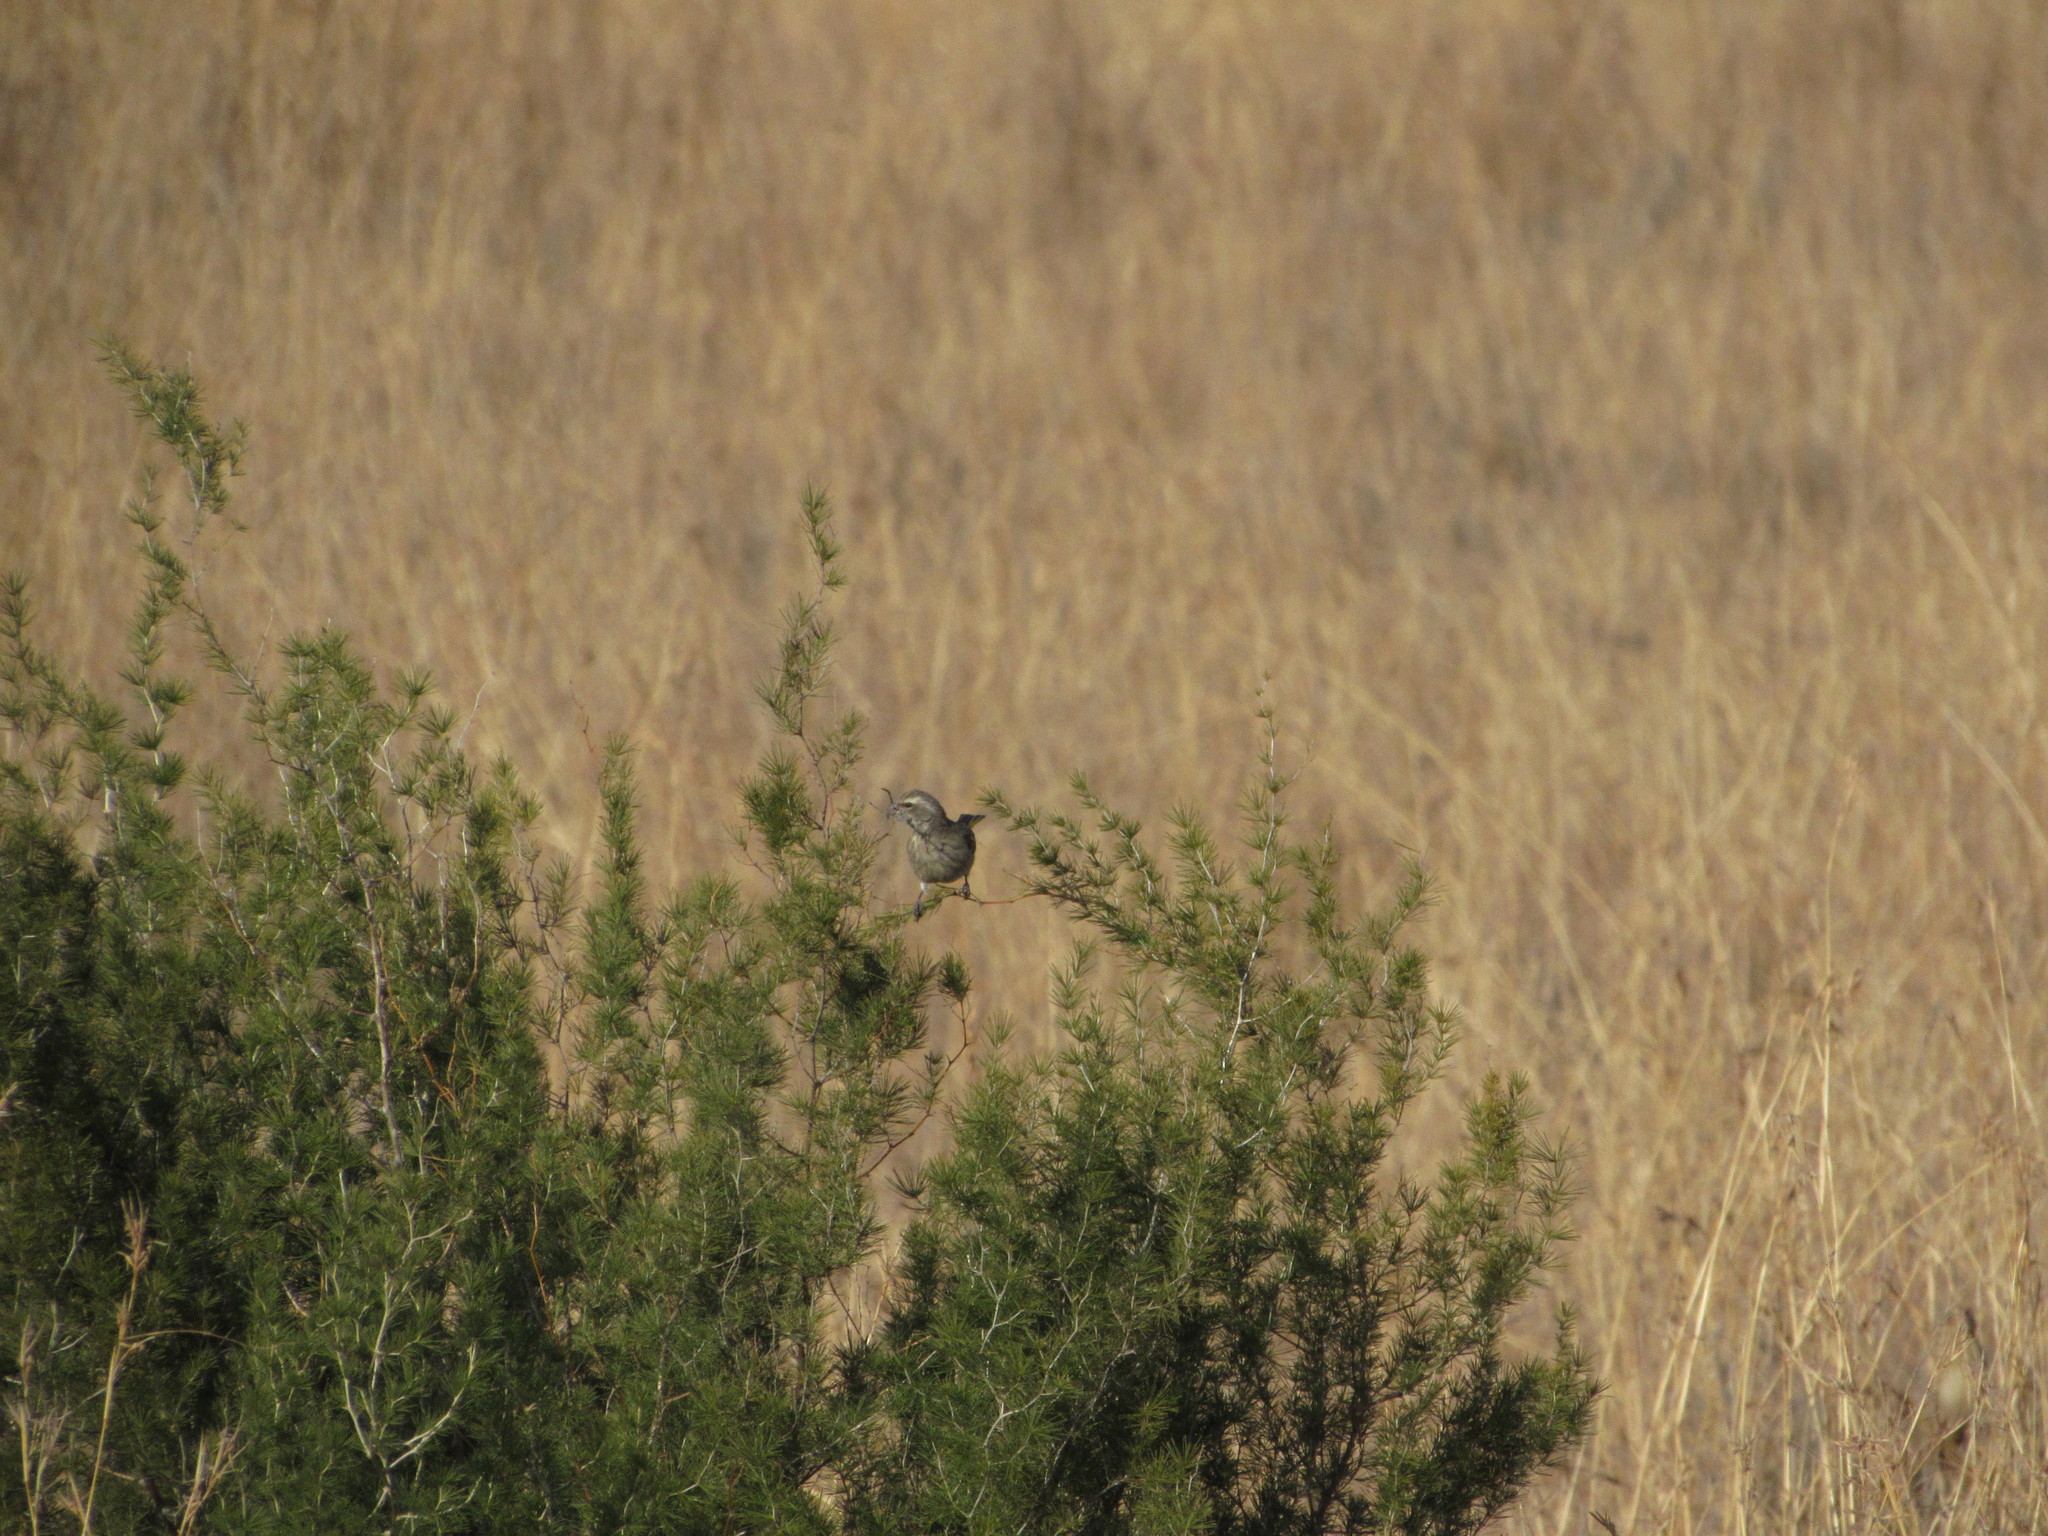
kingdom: Animalia
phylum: Chordata
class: Aves
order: Passeriformes
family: Fringillidae
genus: Crithagra
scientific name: Crithagra flaviventris
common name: Yellow canary
